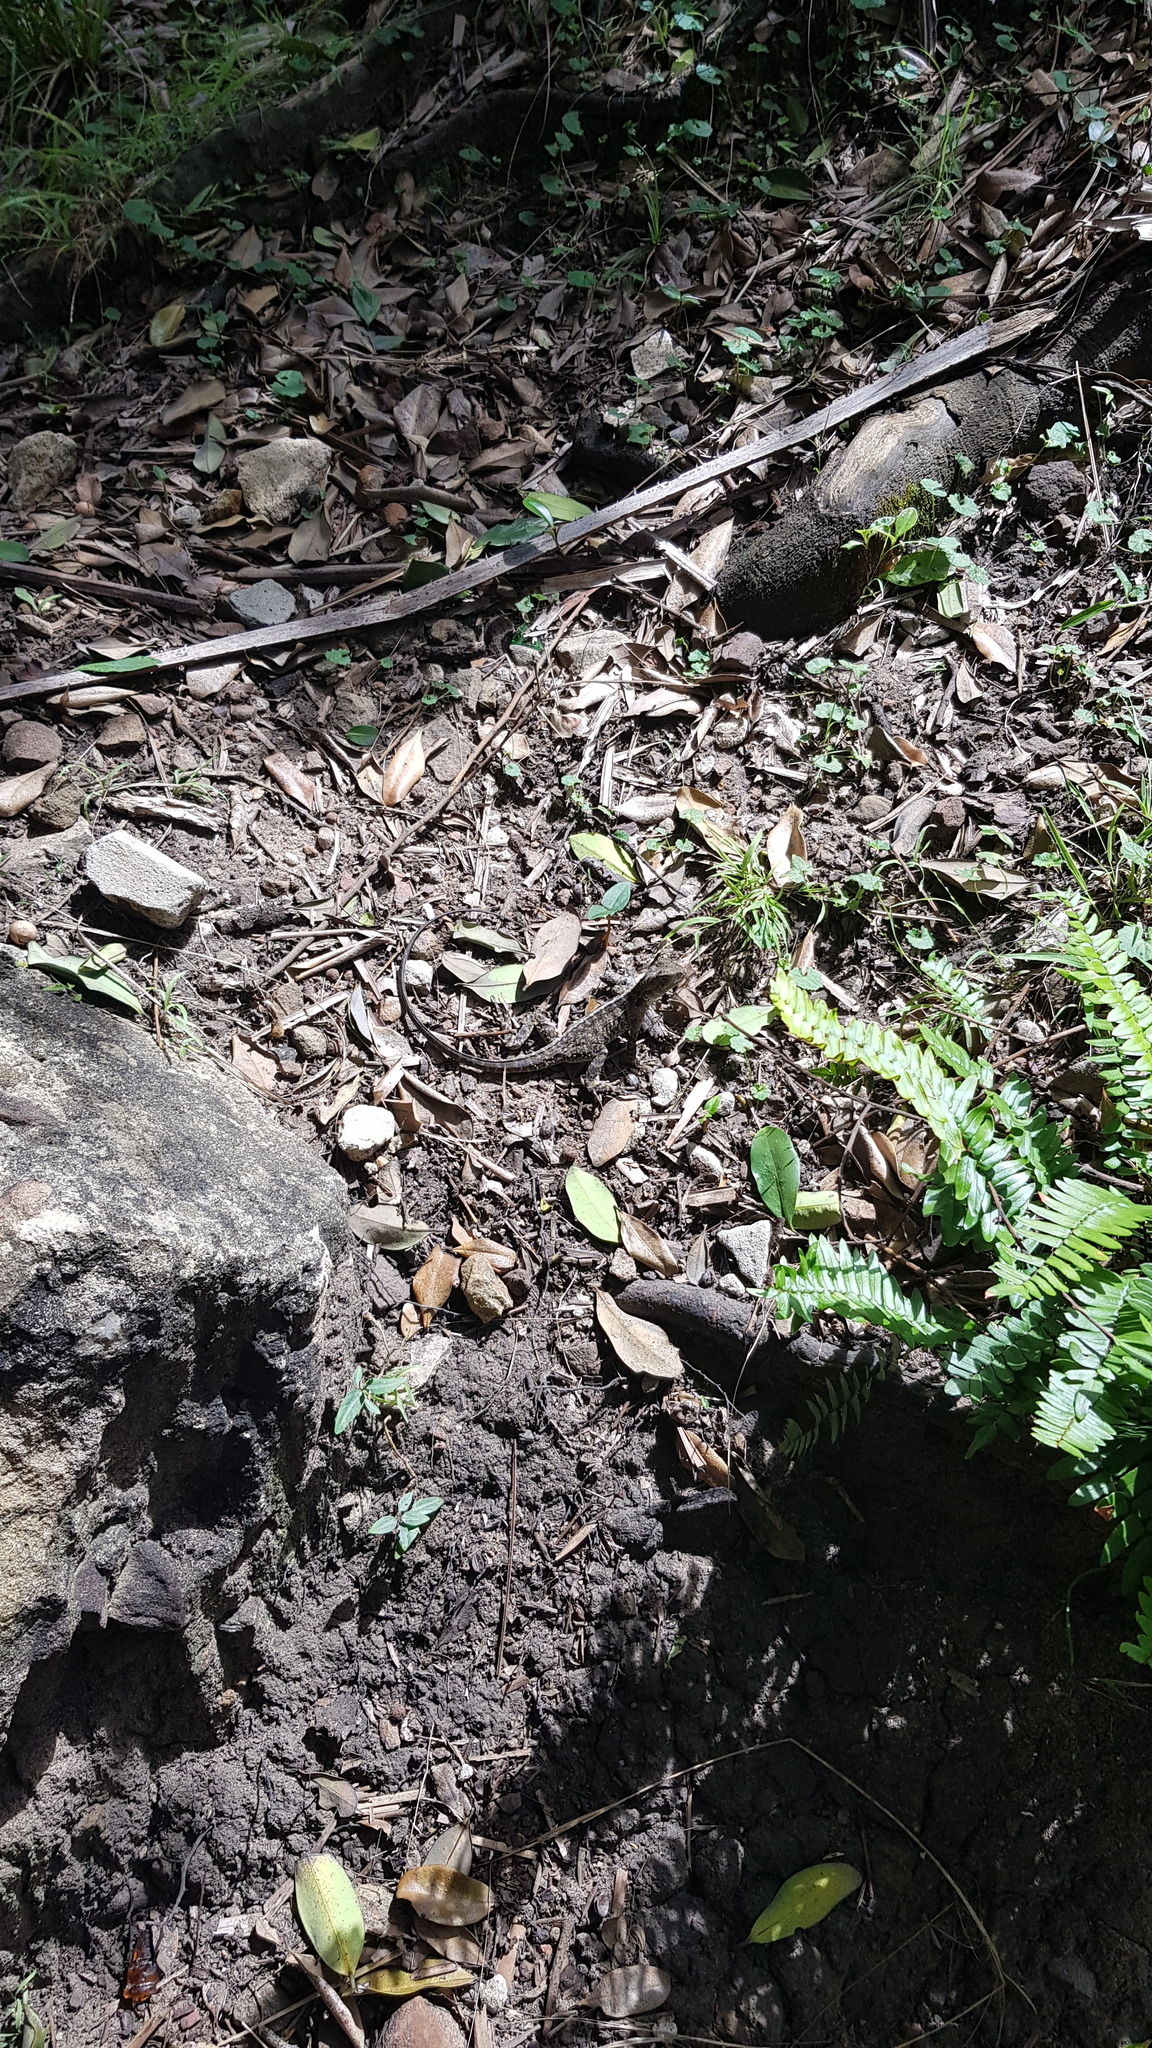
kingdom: Animalia
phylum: Chordata
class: Squamata
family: Agamidae
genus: Intellagama
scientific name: Intellagama lesueurii
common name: Eastern water dragon
